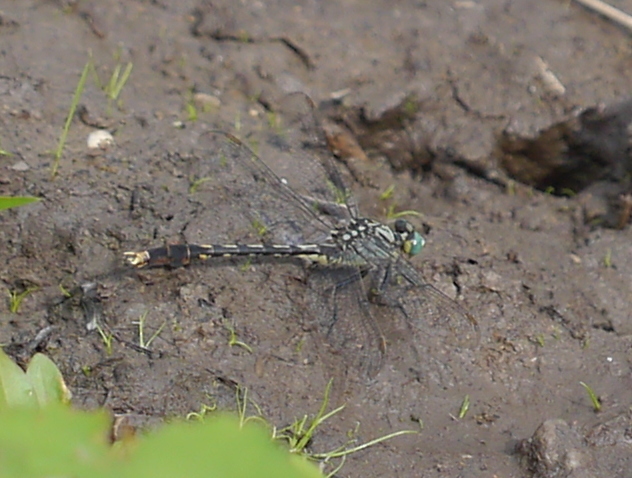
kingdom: Animalia
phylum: Arthropoda
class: Insecta
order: Odonata
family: Gomphidae
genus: Arigomphus
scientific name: Arigomphus villosipes
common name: Unicorn clubtail
